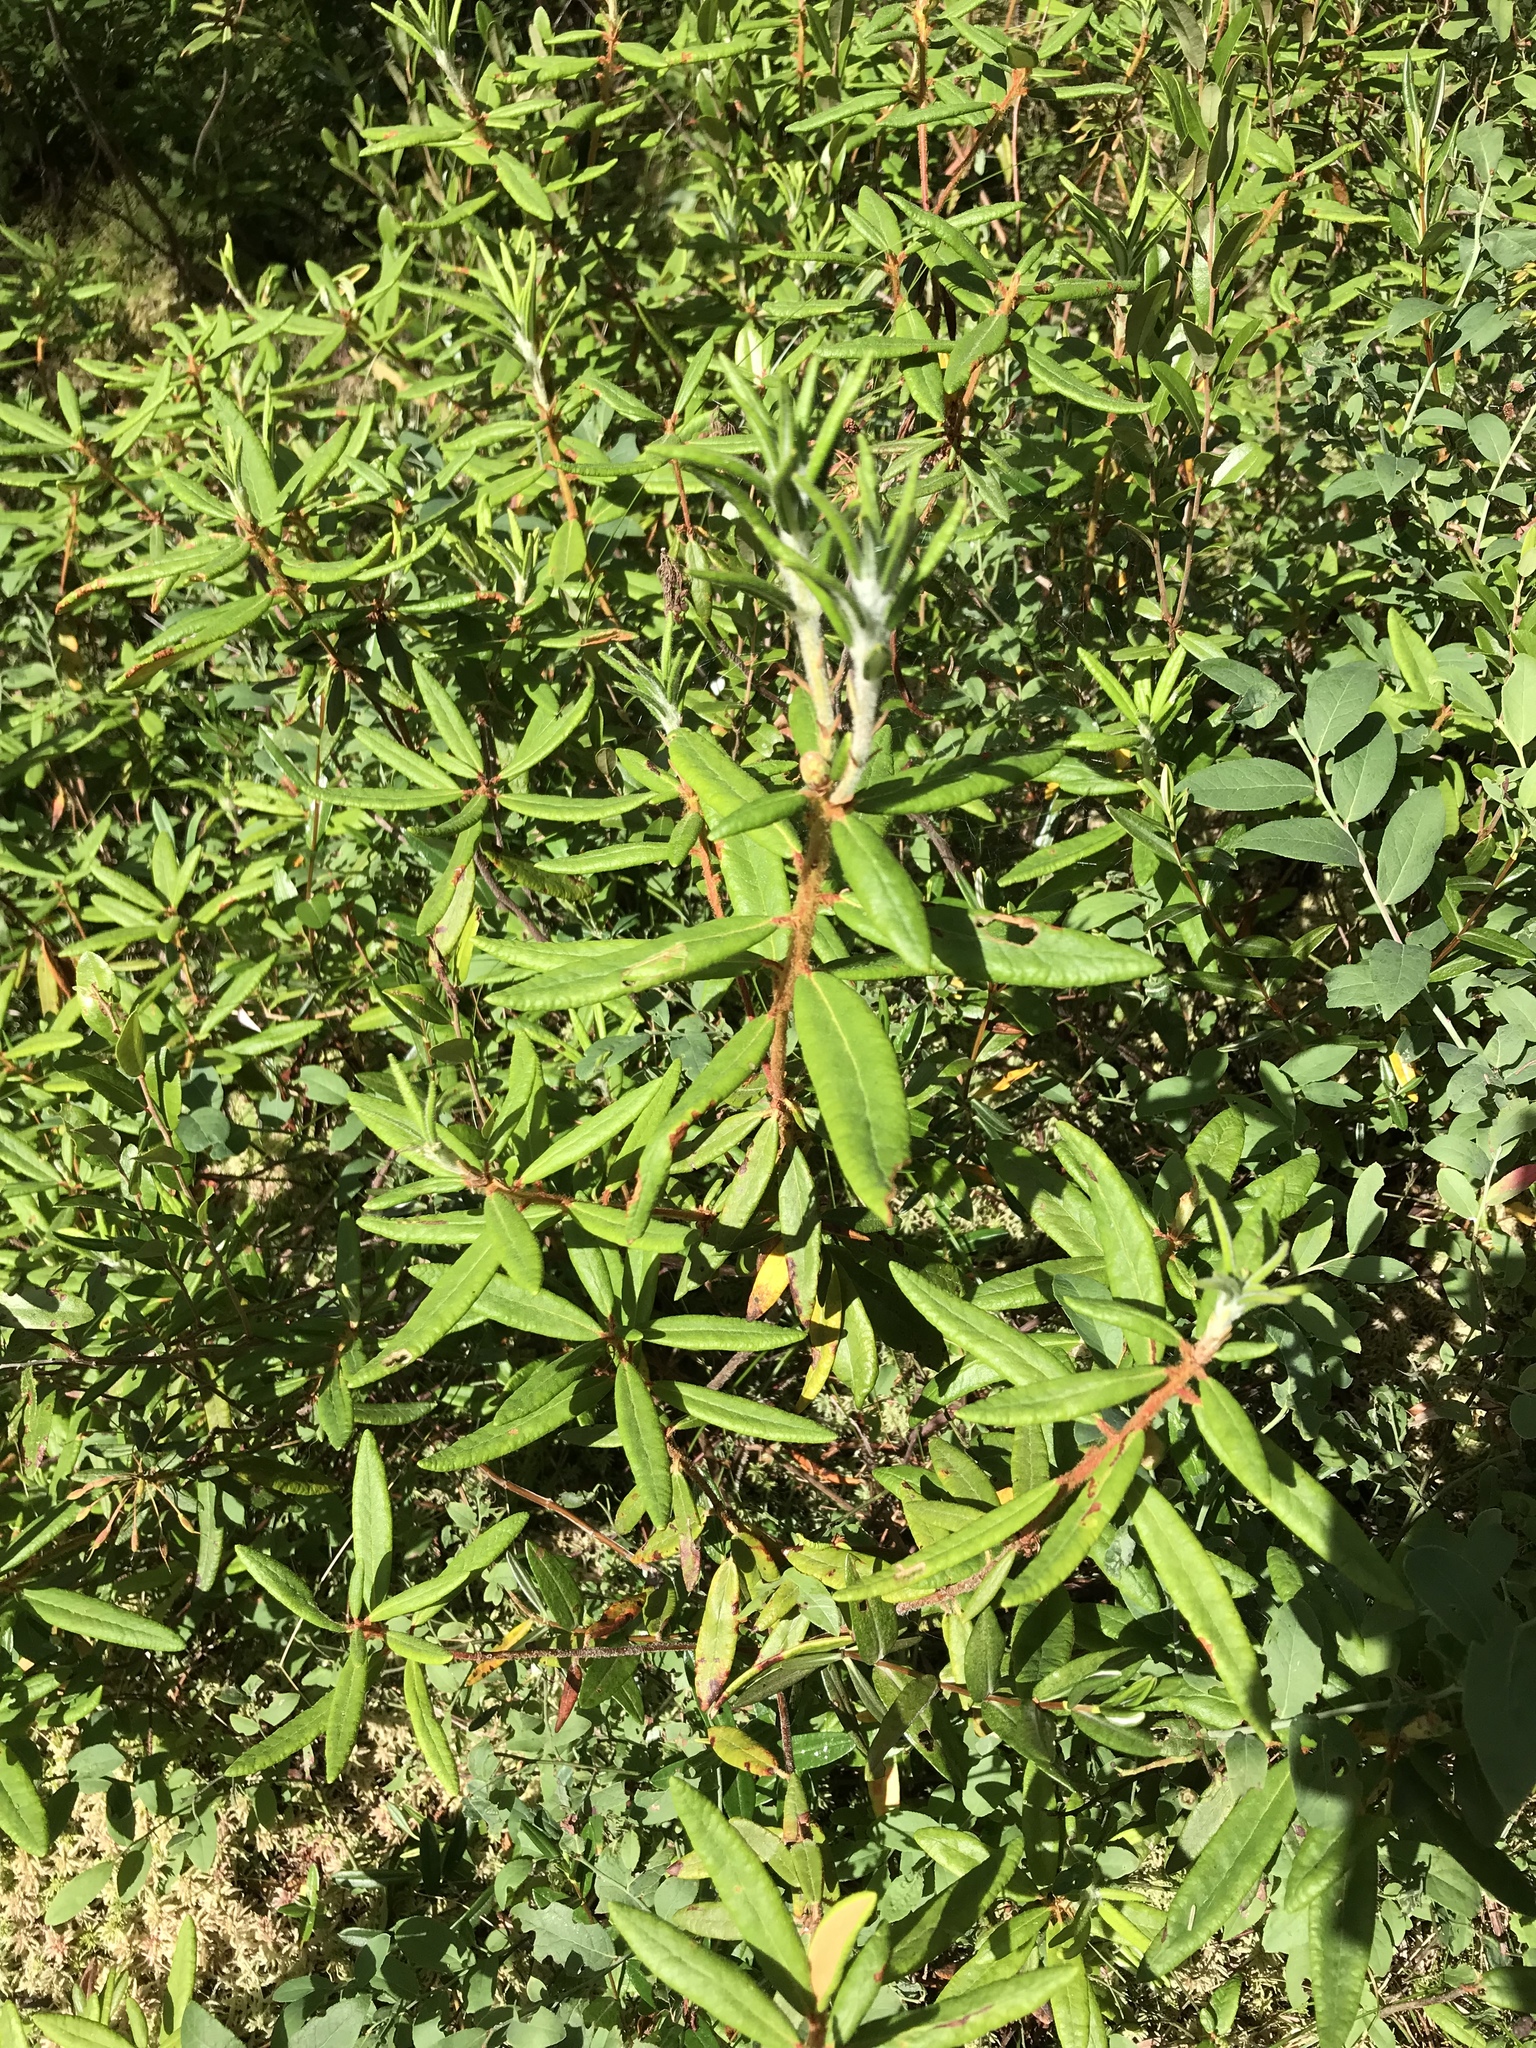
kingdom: Plantae
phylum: Tracheophyta
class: Magnoliopsida
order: Ericales
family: Ericaceae
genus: Rhododendron
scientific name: Rhododendron groenlandicum
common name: Bog labrador tea
